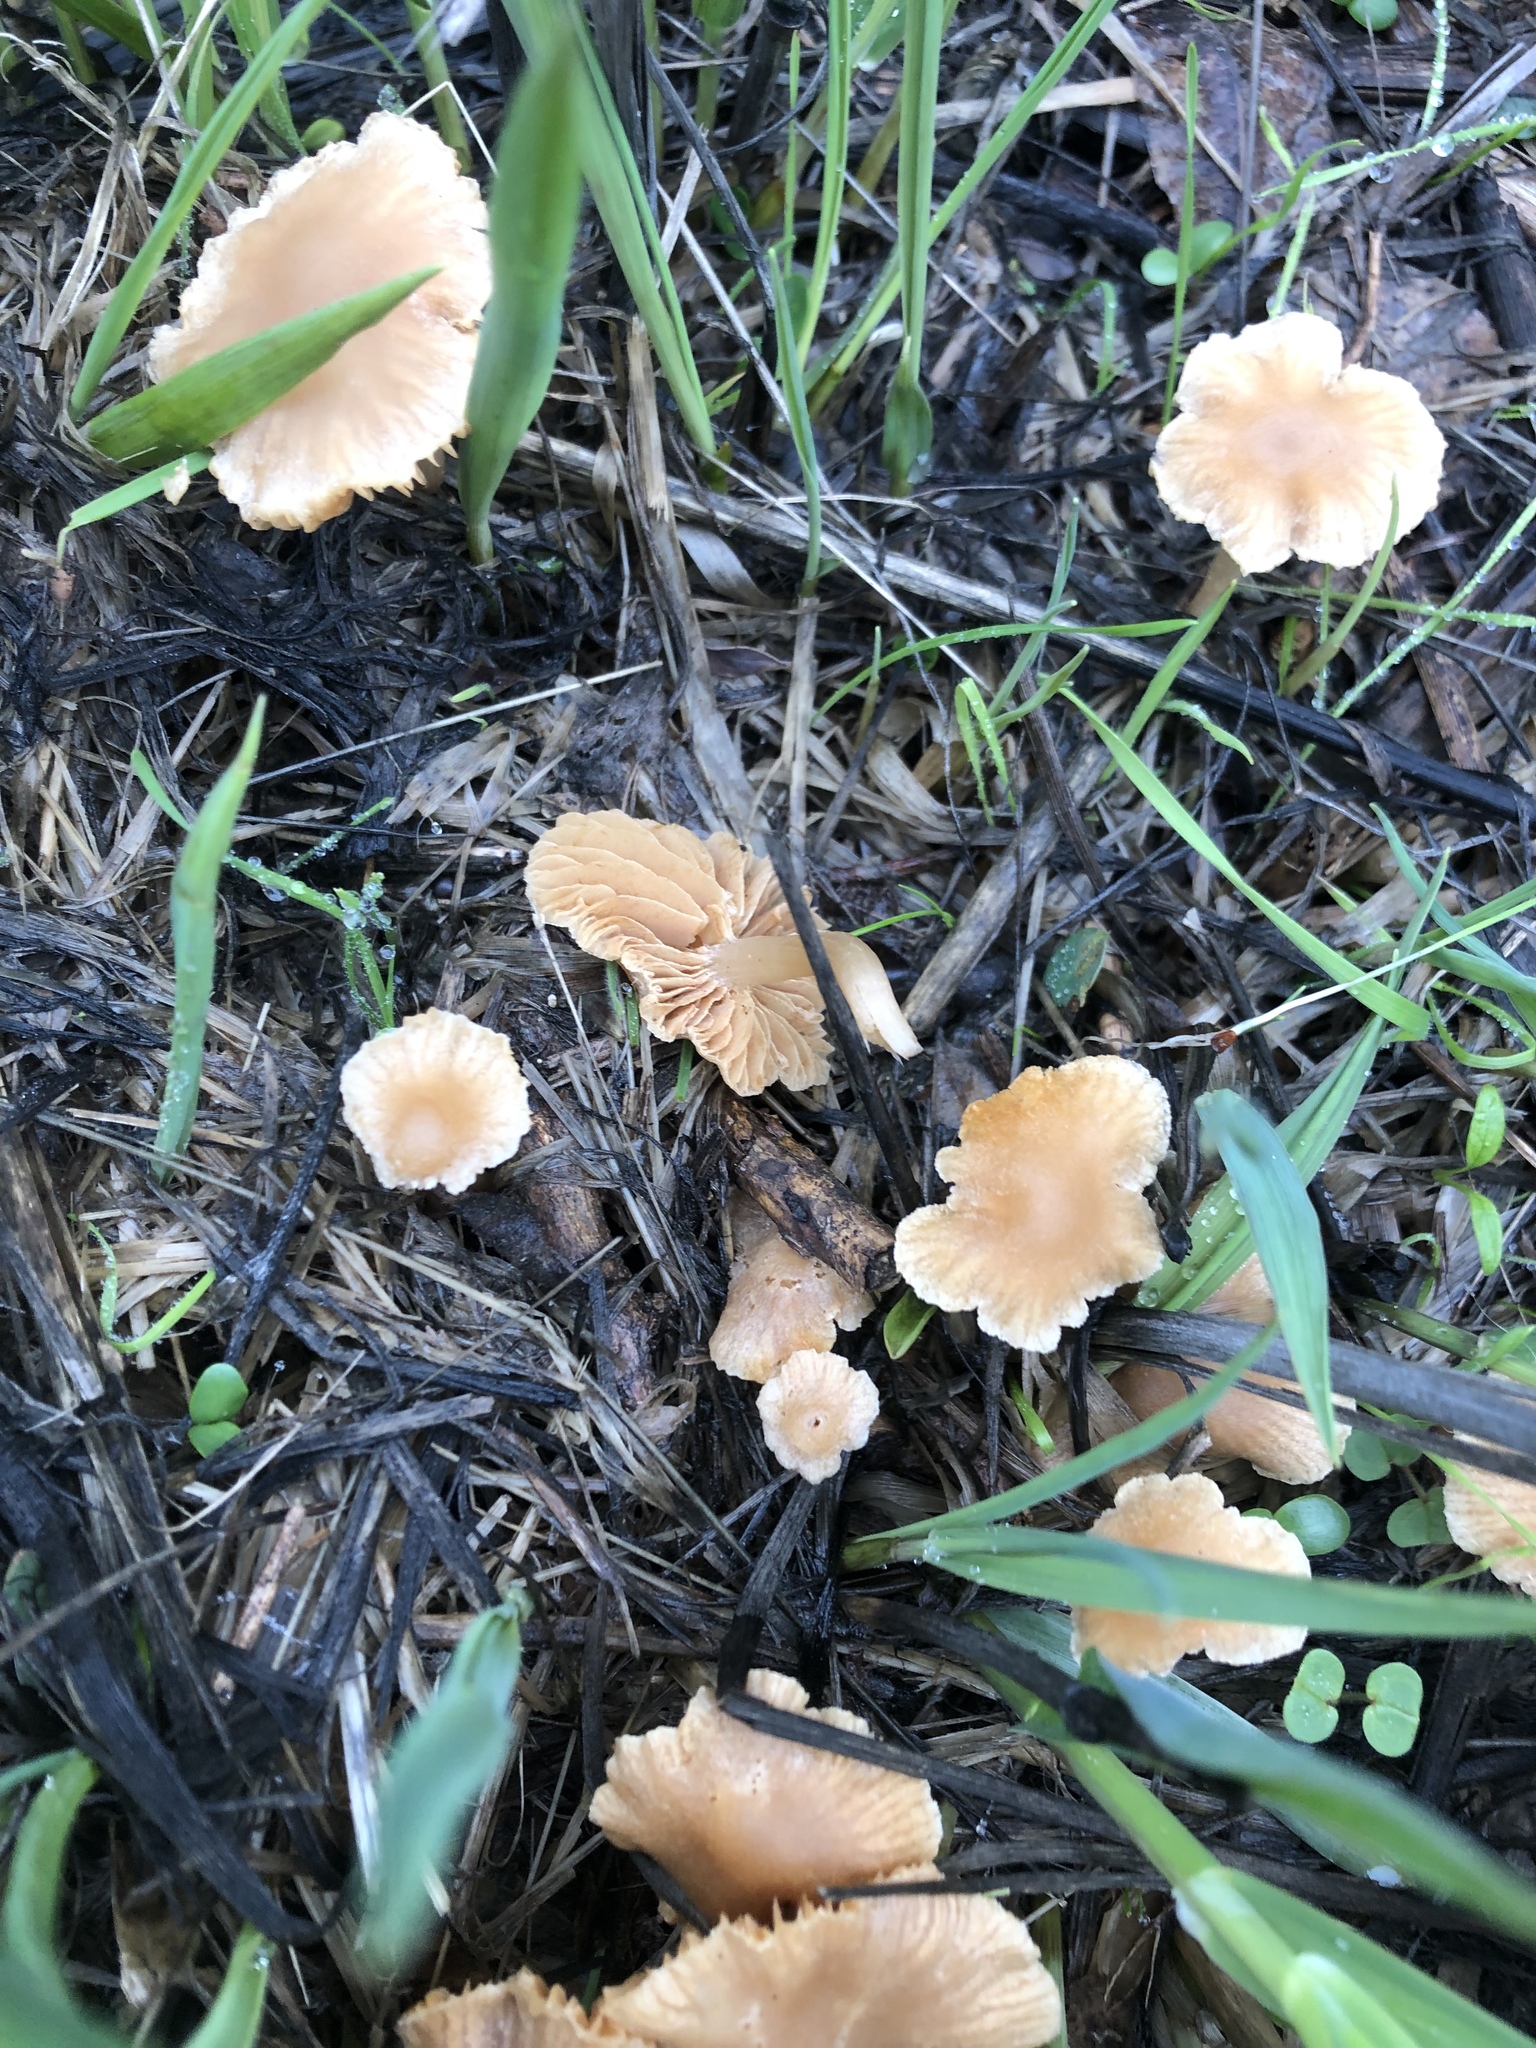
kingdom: Fungi
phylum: Basidiomycota
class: Agaricomycetes
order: Agaricales
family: Tubariaceae
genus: Tubaria
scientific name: Tubaria furfuracea
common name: Scurfy twiglet
